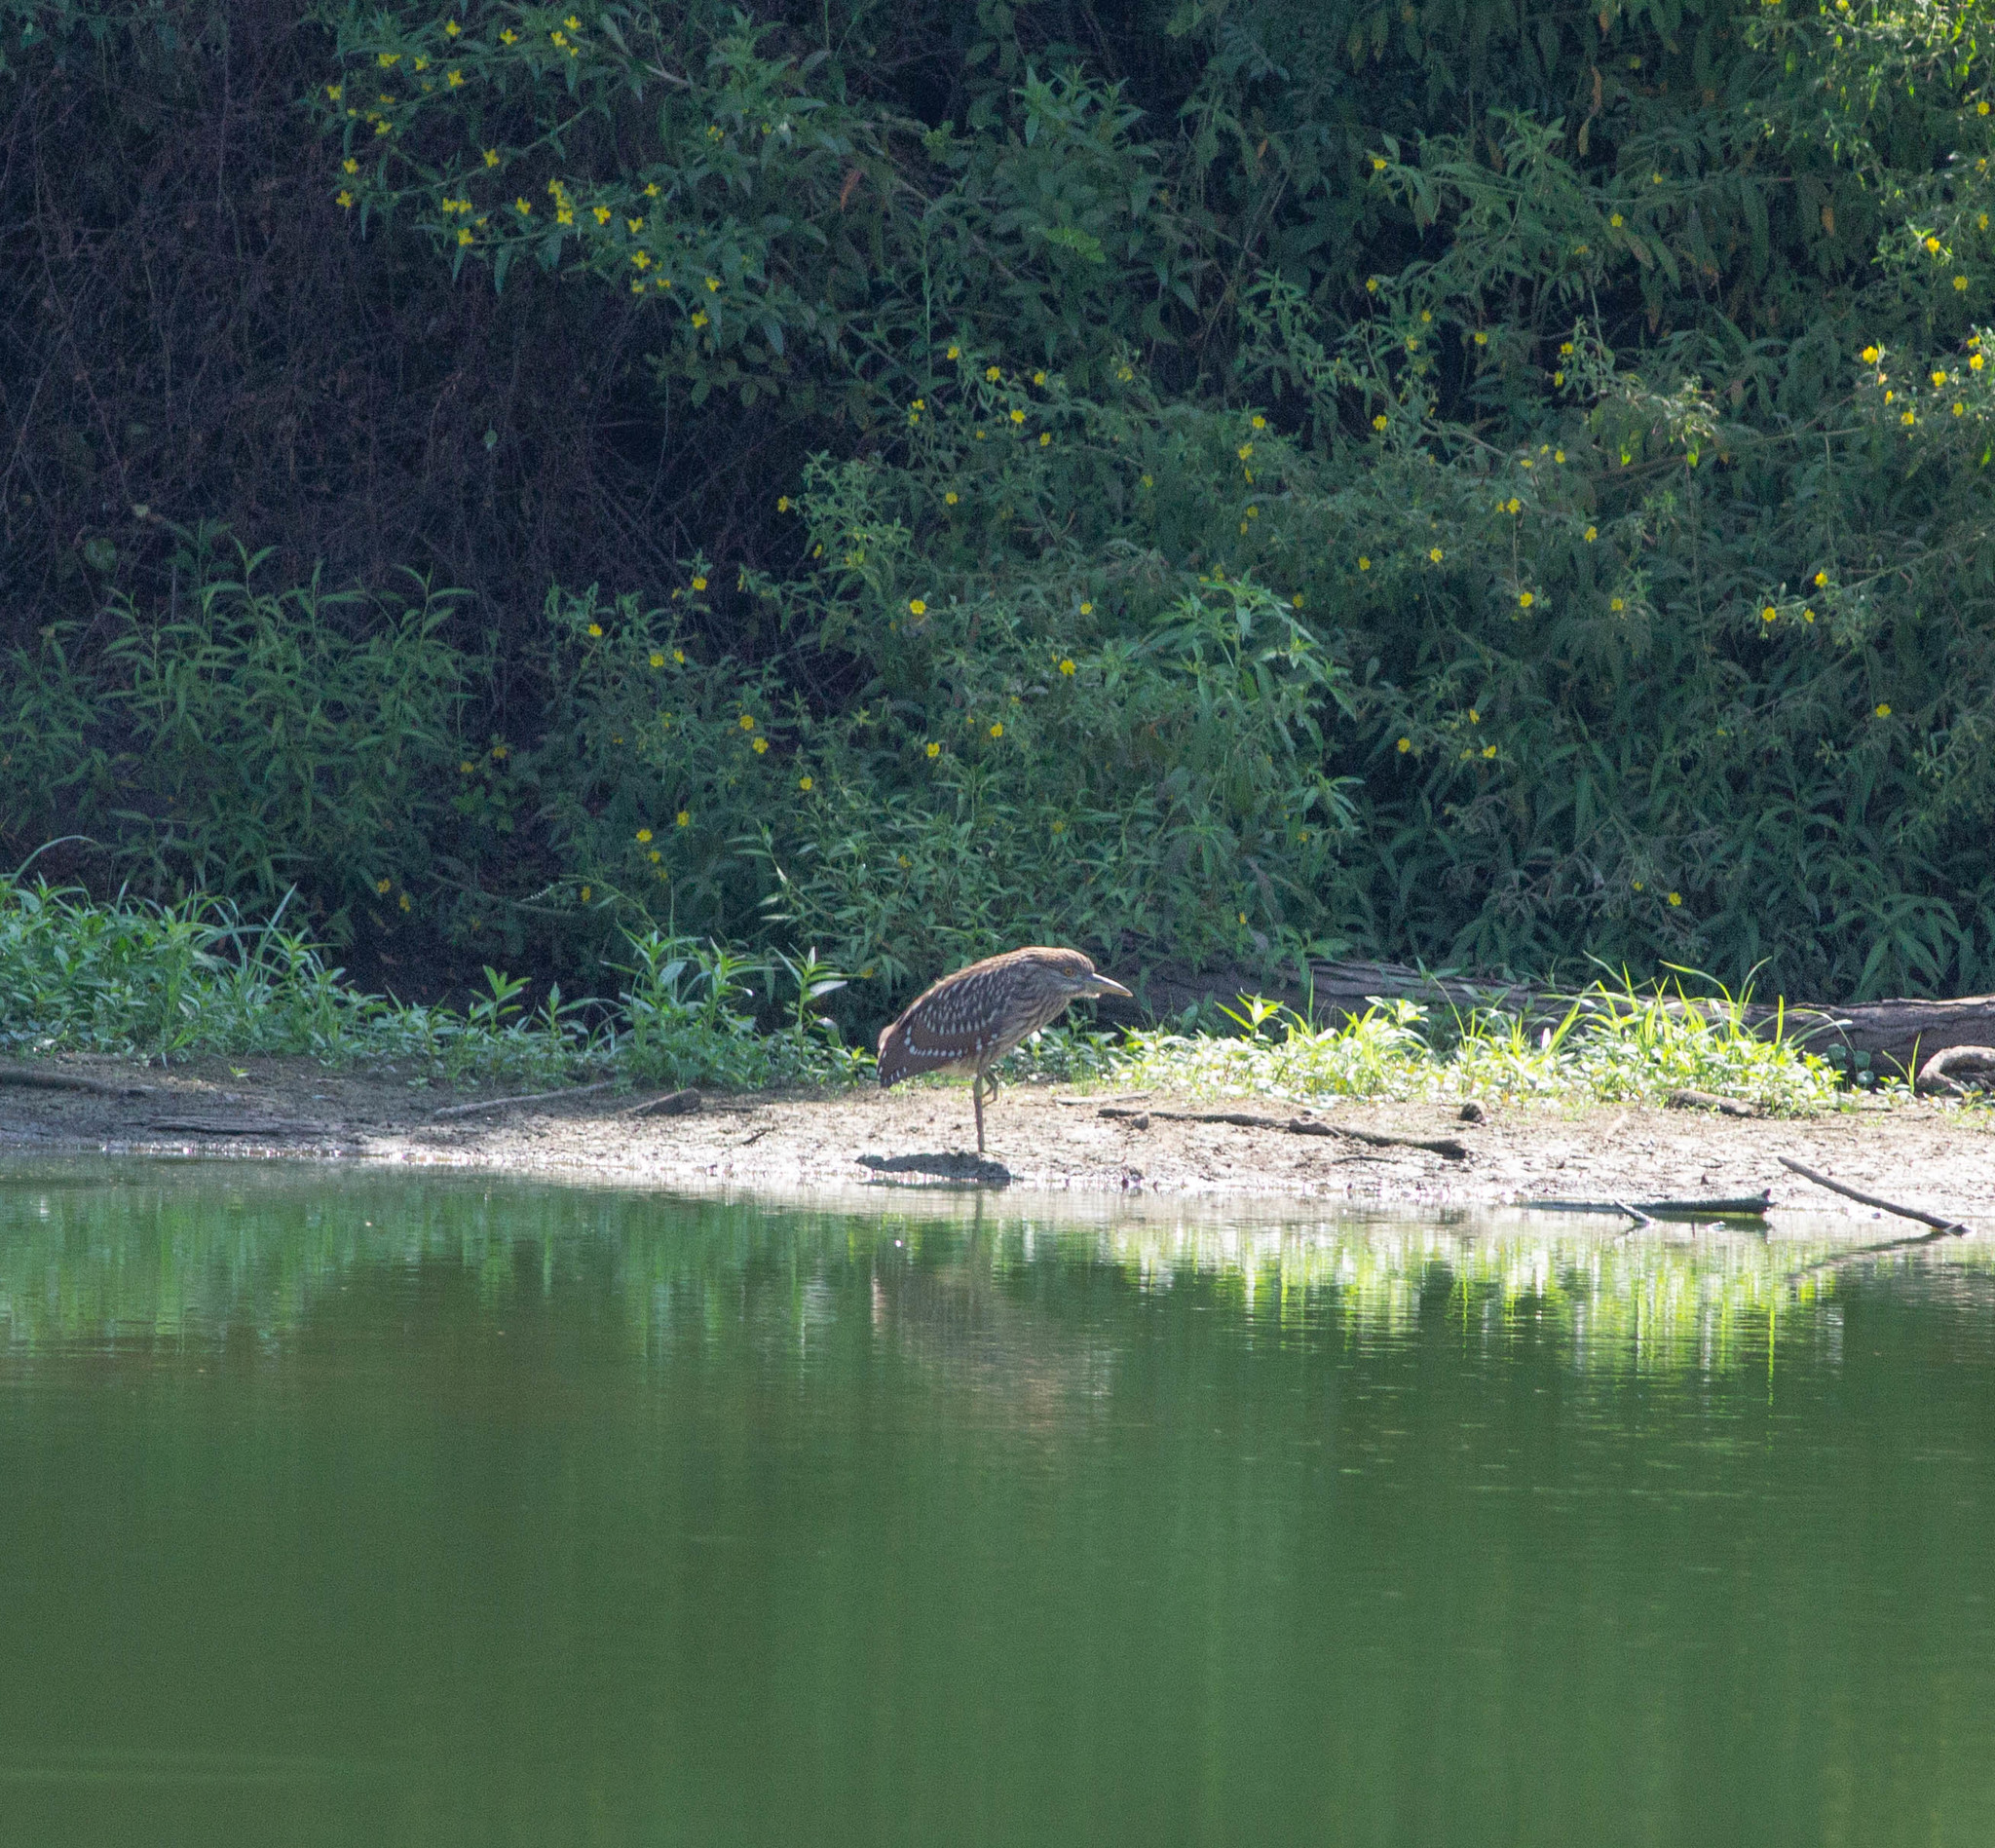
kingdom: Animalia
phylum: Chordata
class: Aves
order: Pelecaniformes
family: Ardeidae
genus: Nycticorax
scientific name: Nycticorax nycticorax
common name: Black-crowned night heron
